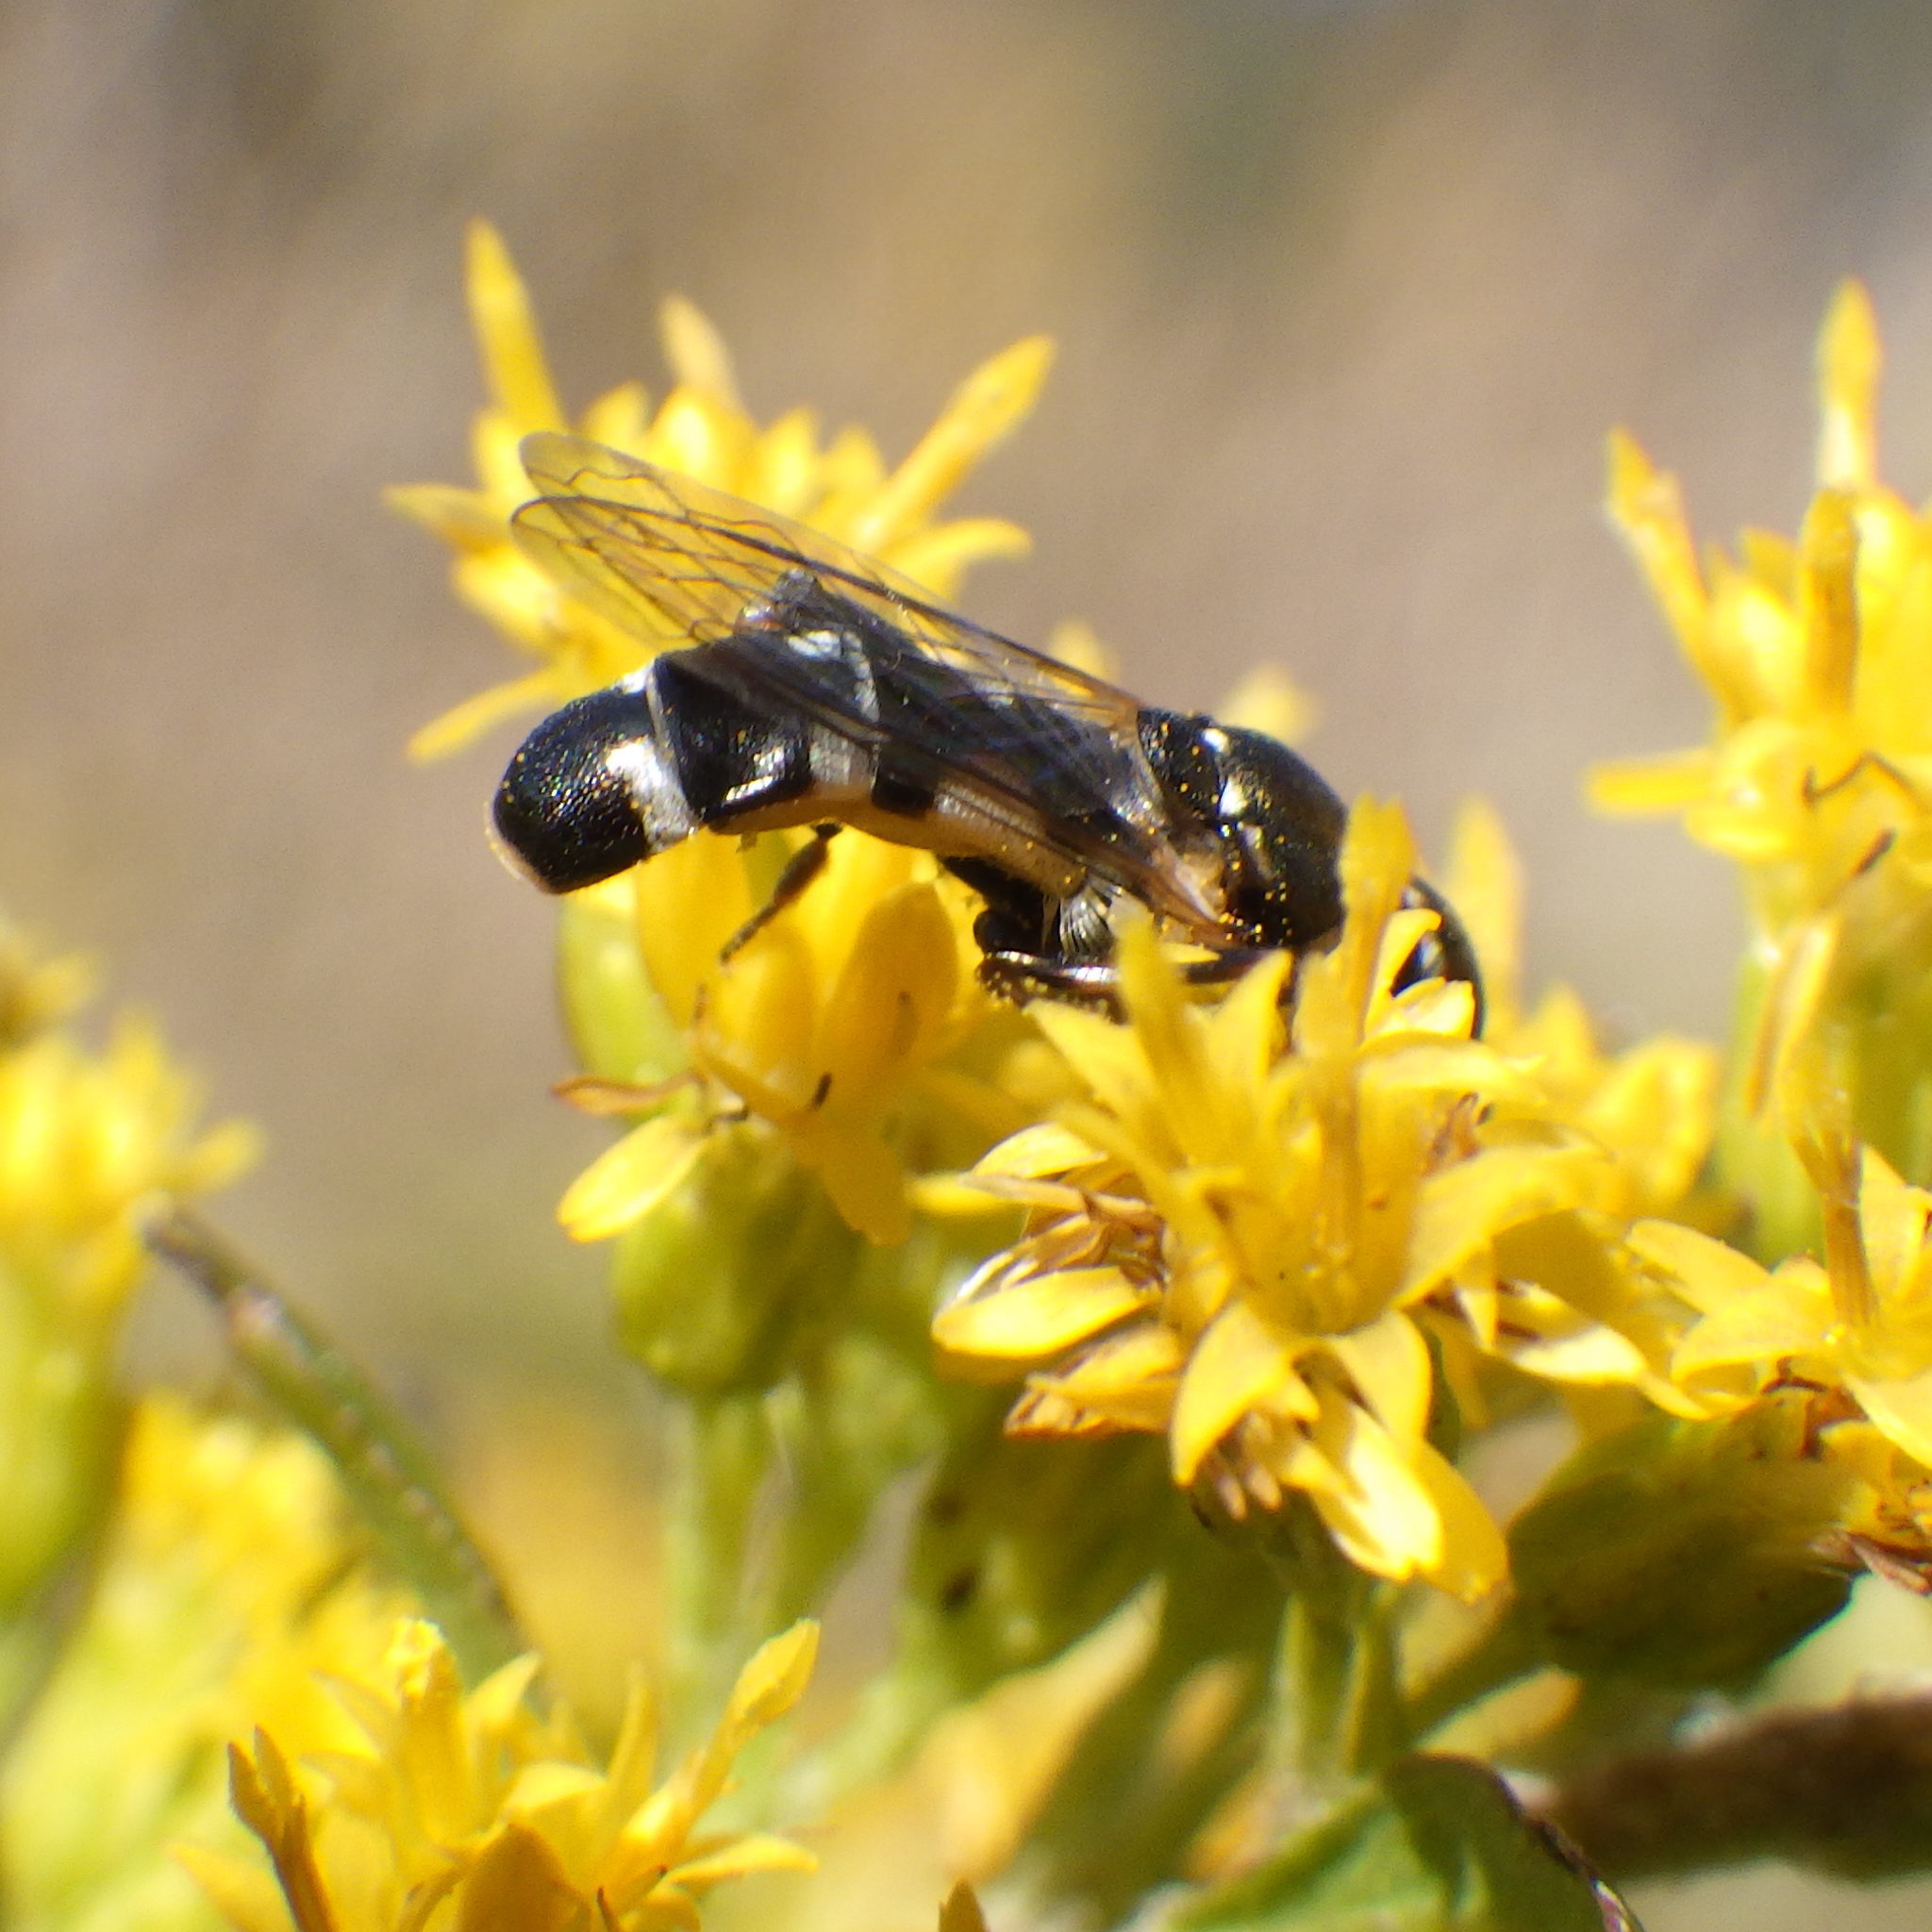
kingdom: Animalia
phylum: Arthropoda
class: Insecta
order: Diptera
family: Syrphidae
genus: Syritta
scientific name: Syritta pipiens
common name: Hover fly
